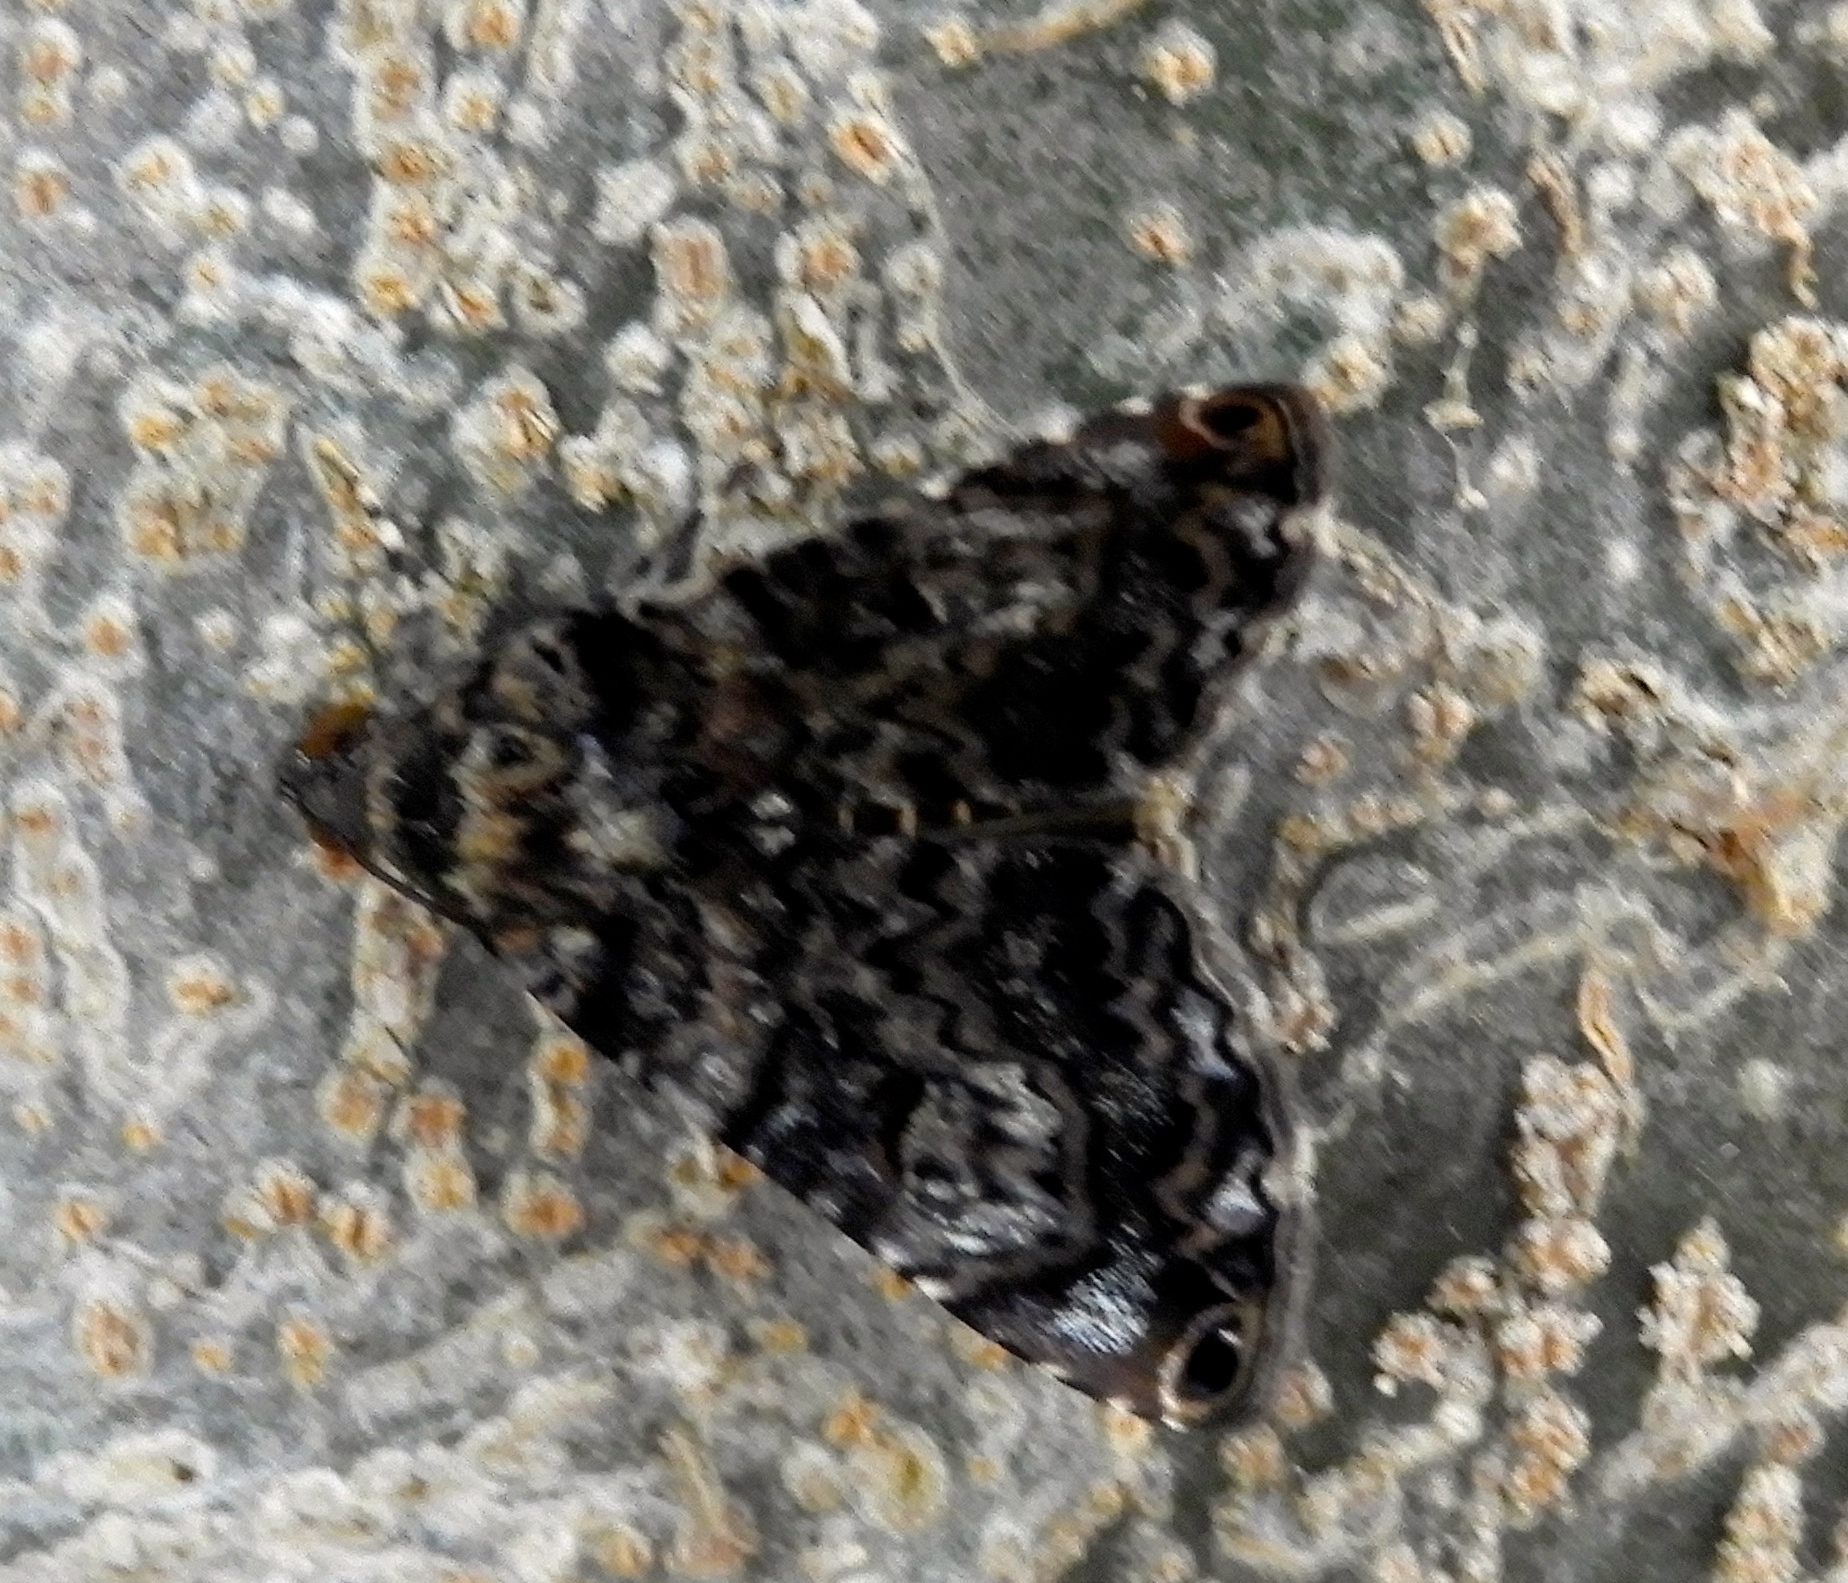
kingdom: Animalia
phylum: Arthropoda
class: Insecta
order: Lepidoptera
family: Erebidae
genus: Acolasis
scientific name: Acolasis
